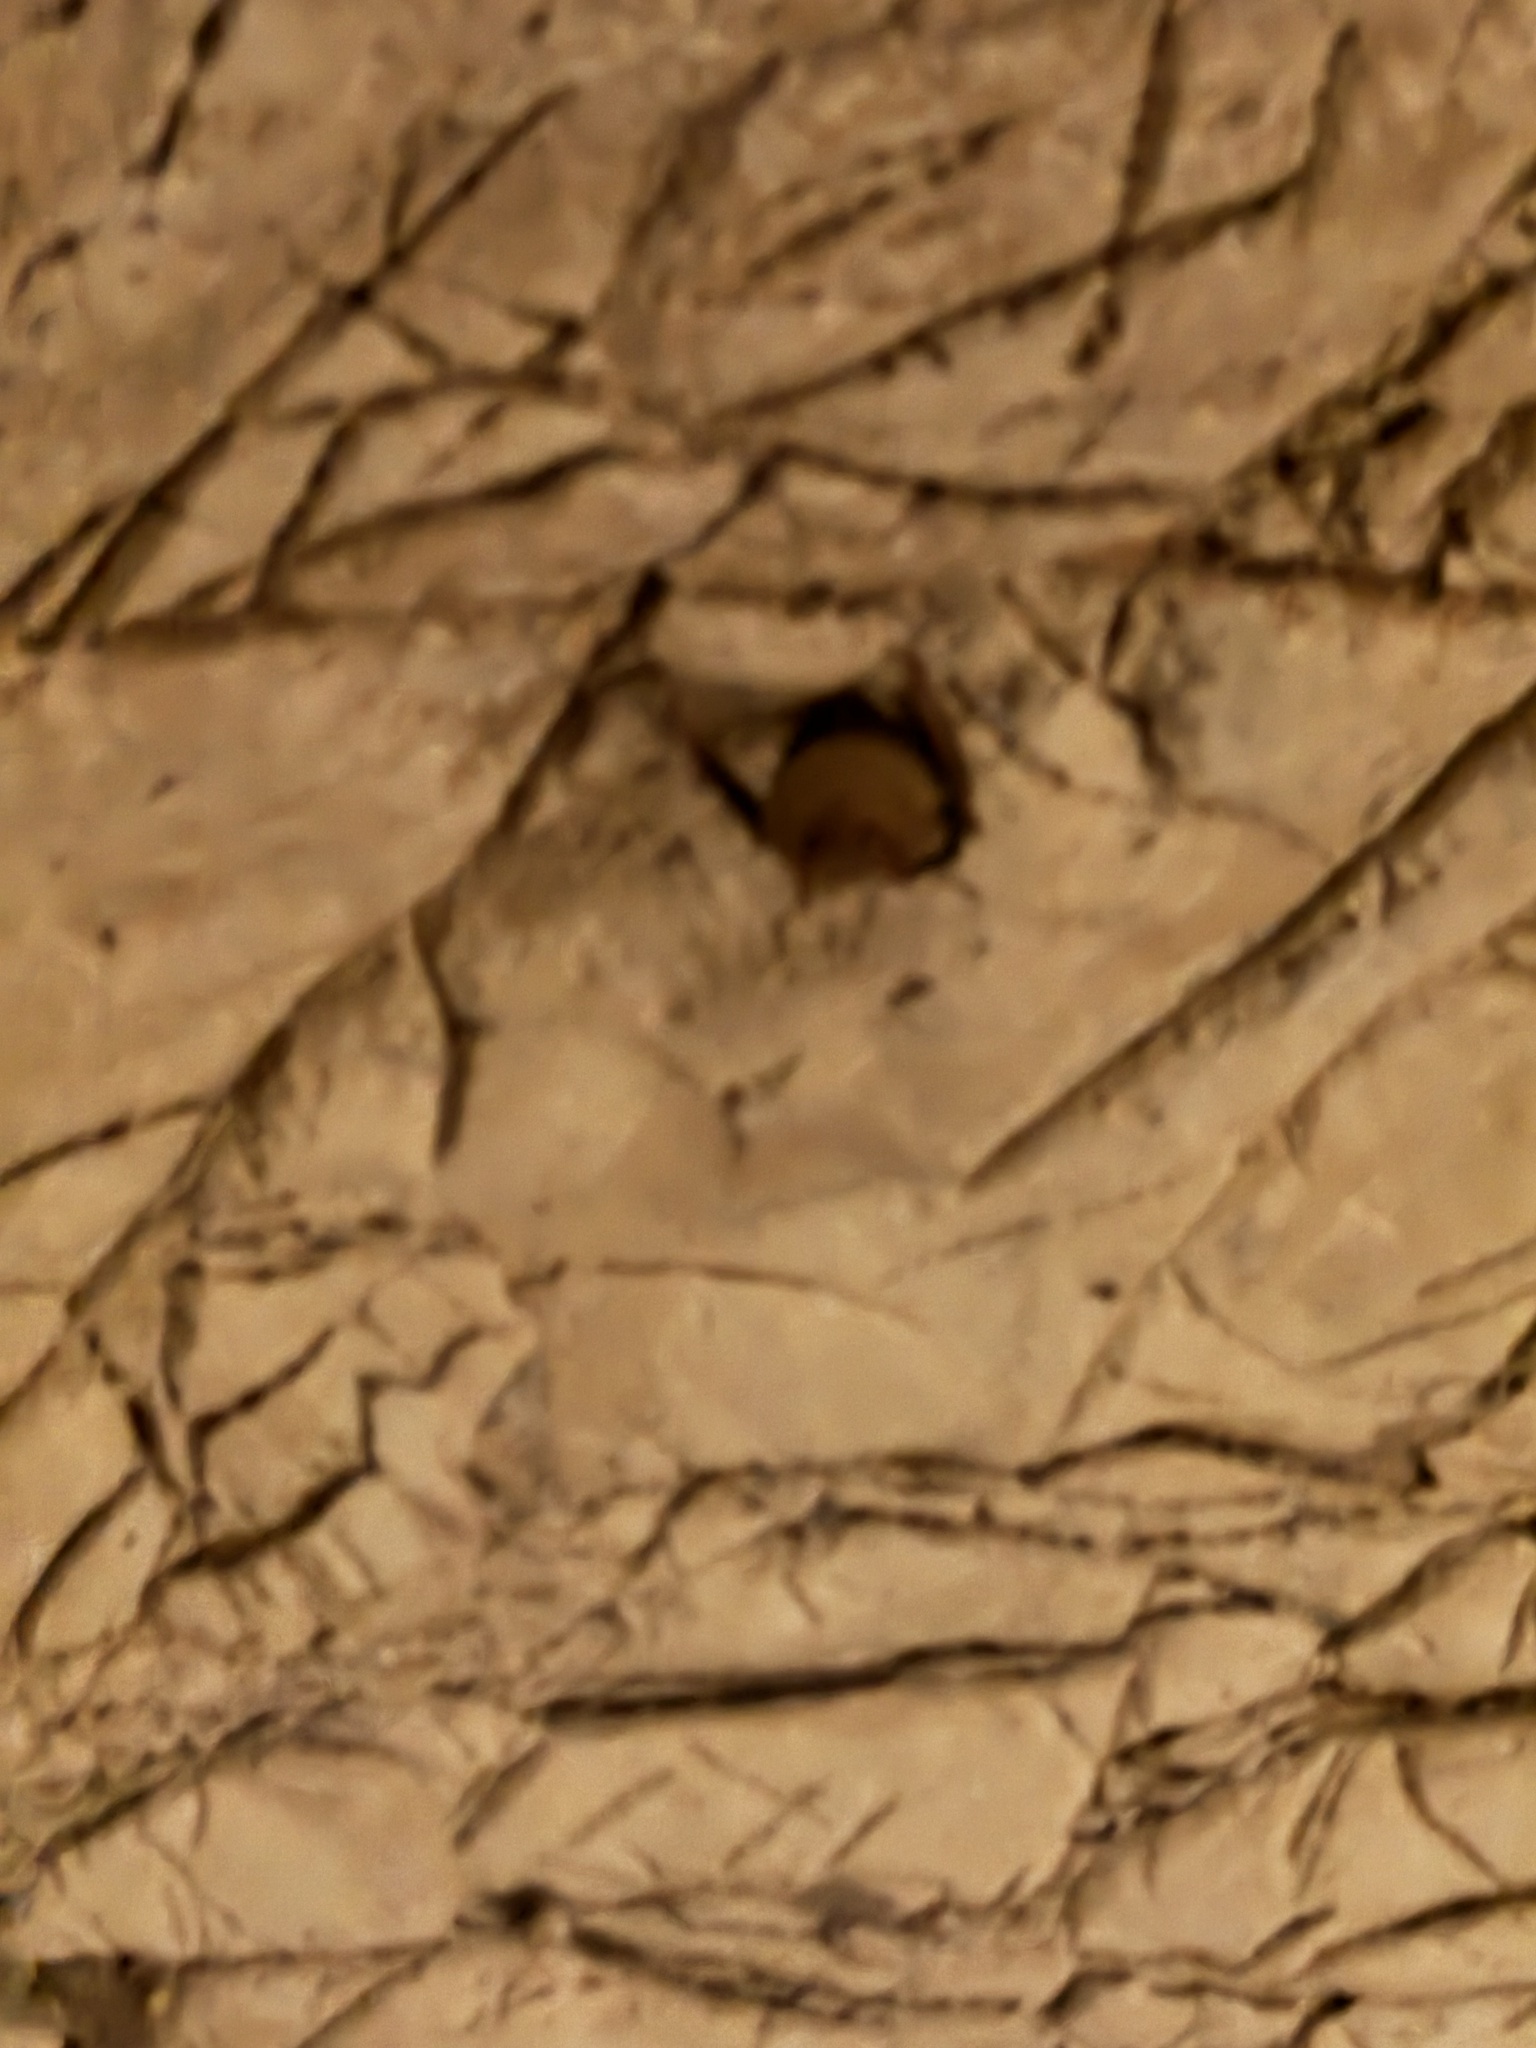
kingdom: Animalia
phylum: Chordata
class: Mammalia
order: Chiroptera
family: Vespertilionidae
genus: Perimyotis
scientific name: Perimyotis subflavus
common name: Eastern pipistrelle
